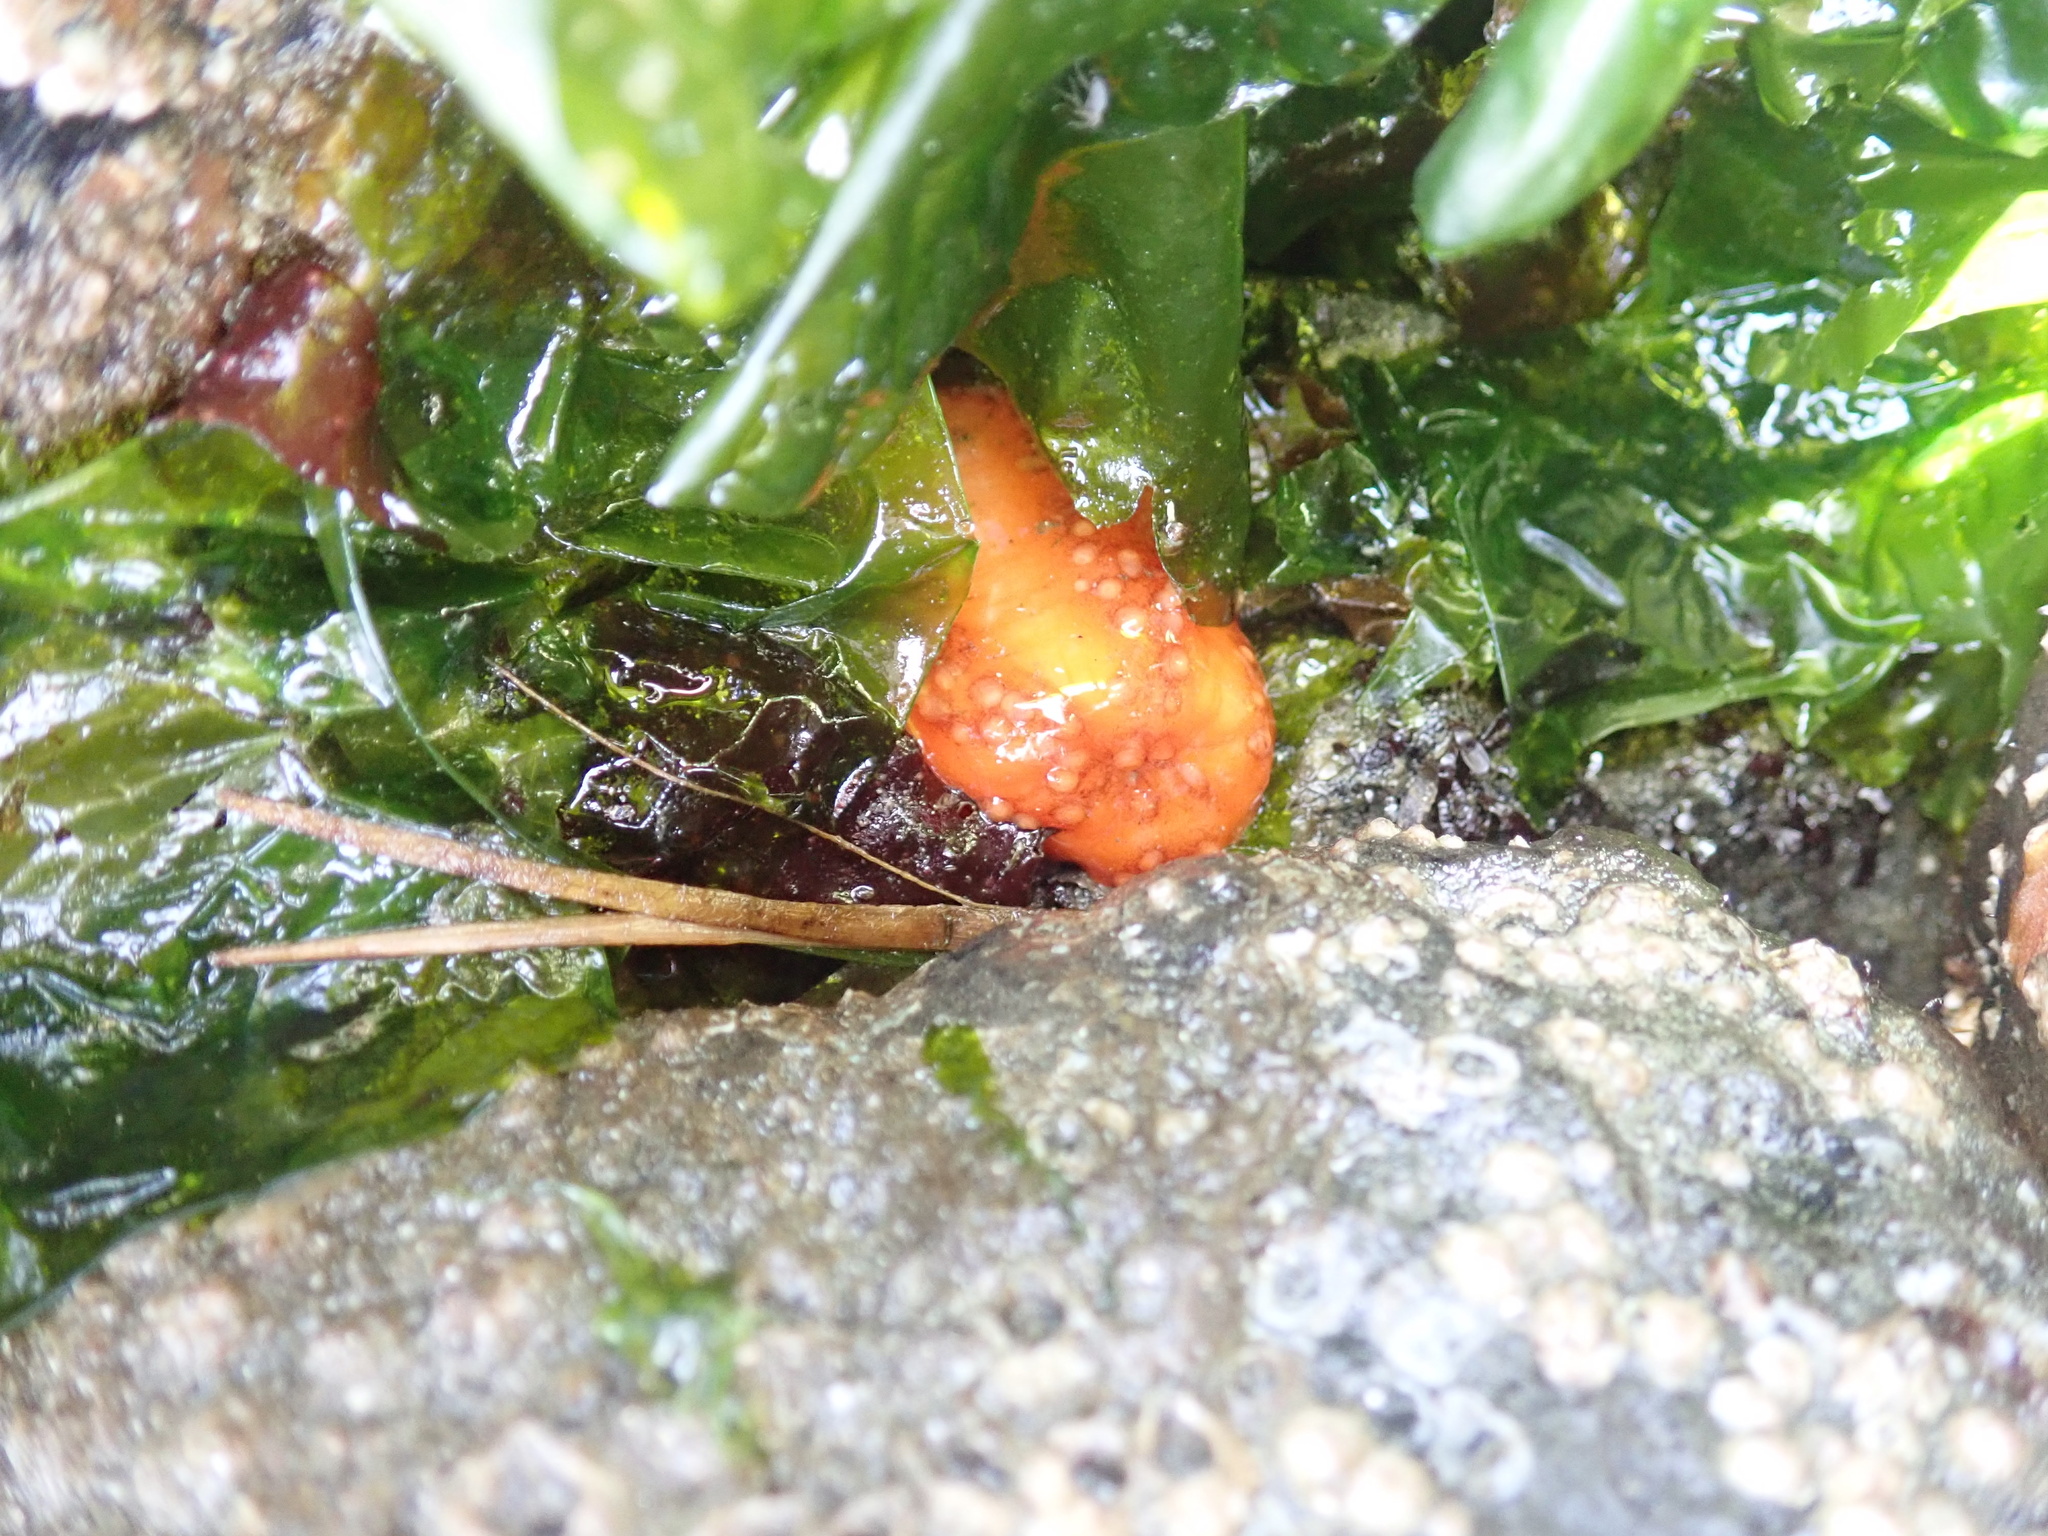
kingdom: Animalia
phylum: Echinodermata
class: Holothuroidea
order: Dendrochirotida
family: Cucumariidae
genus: Cucumaria
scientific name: Cucumaria miniata
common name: Orange sea cucumber
